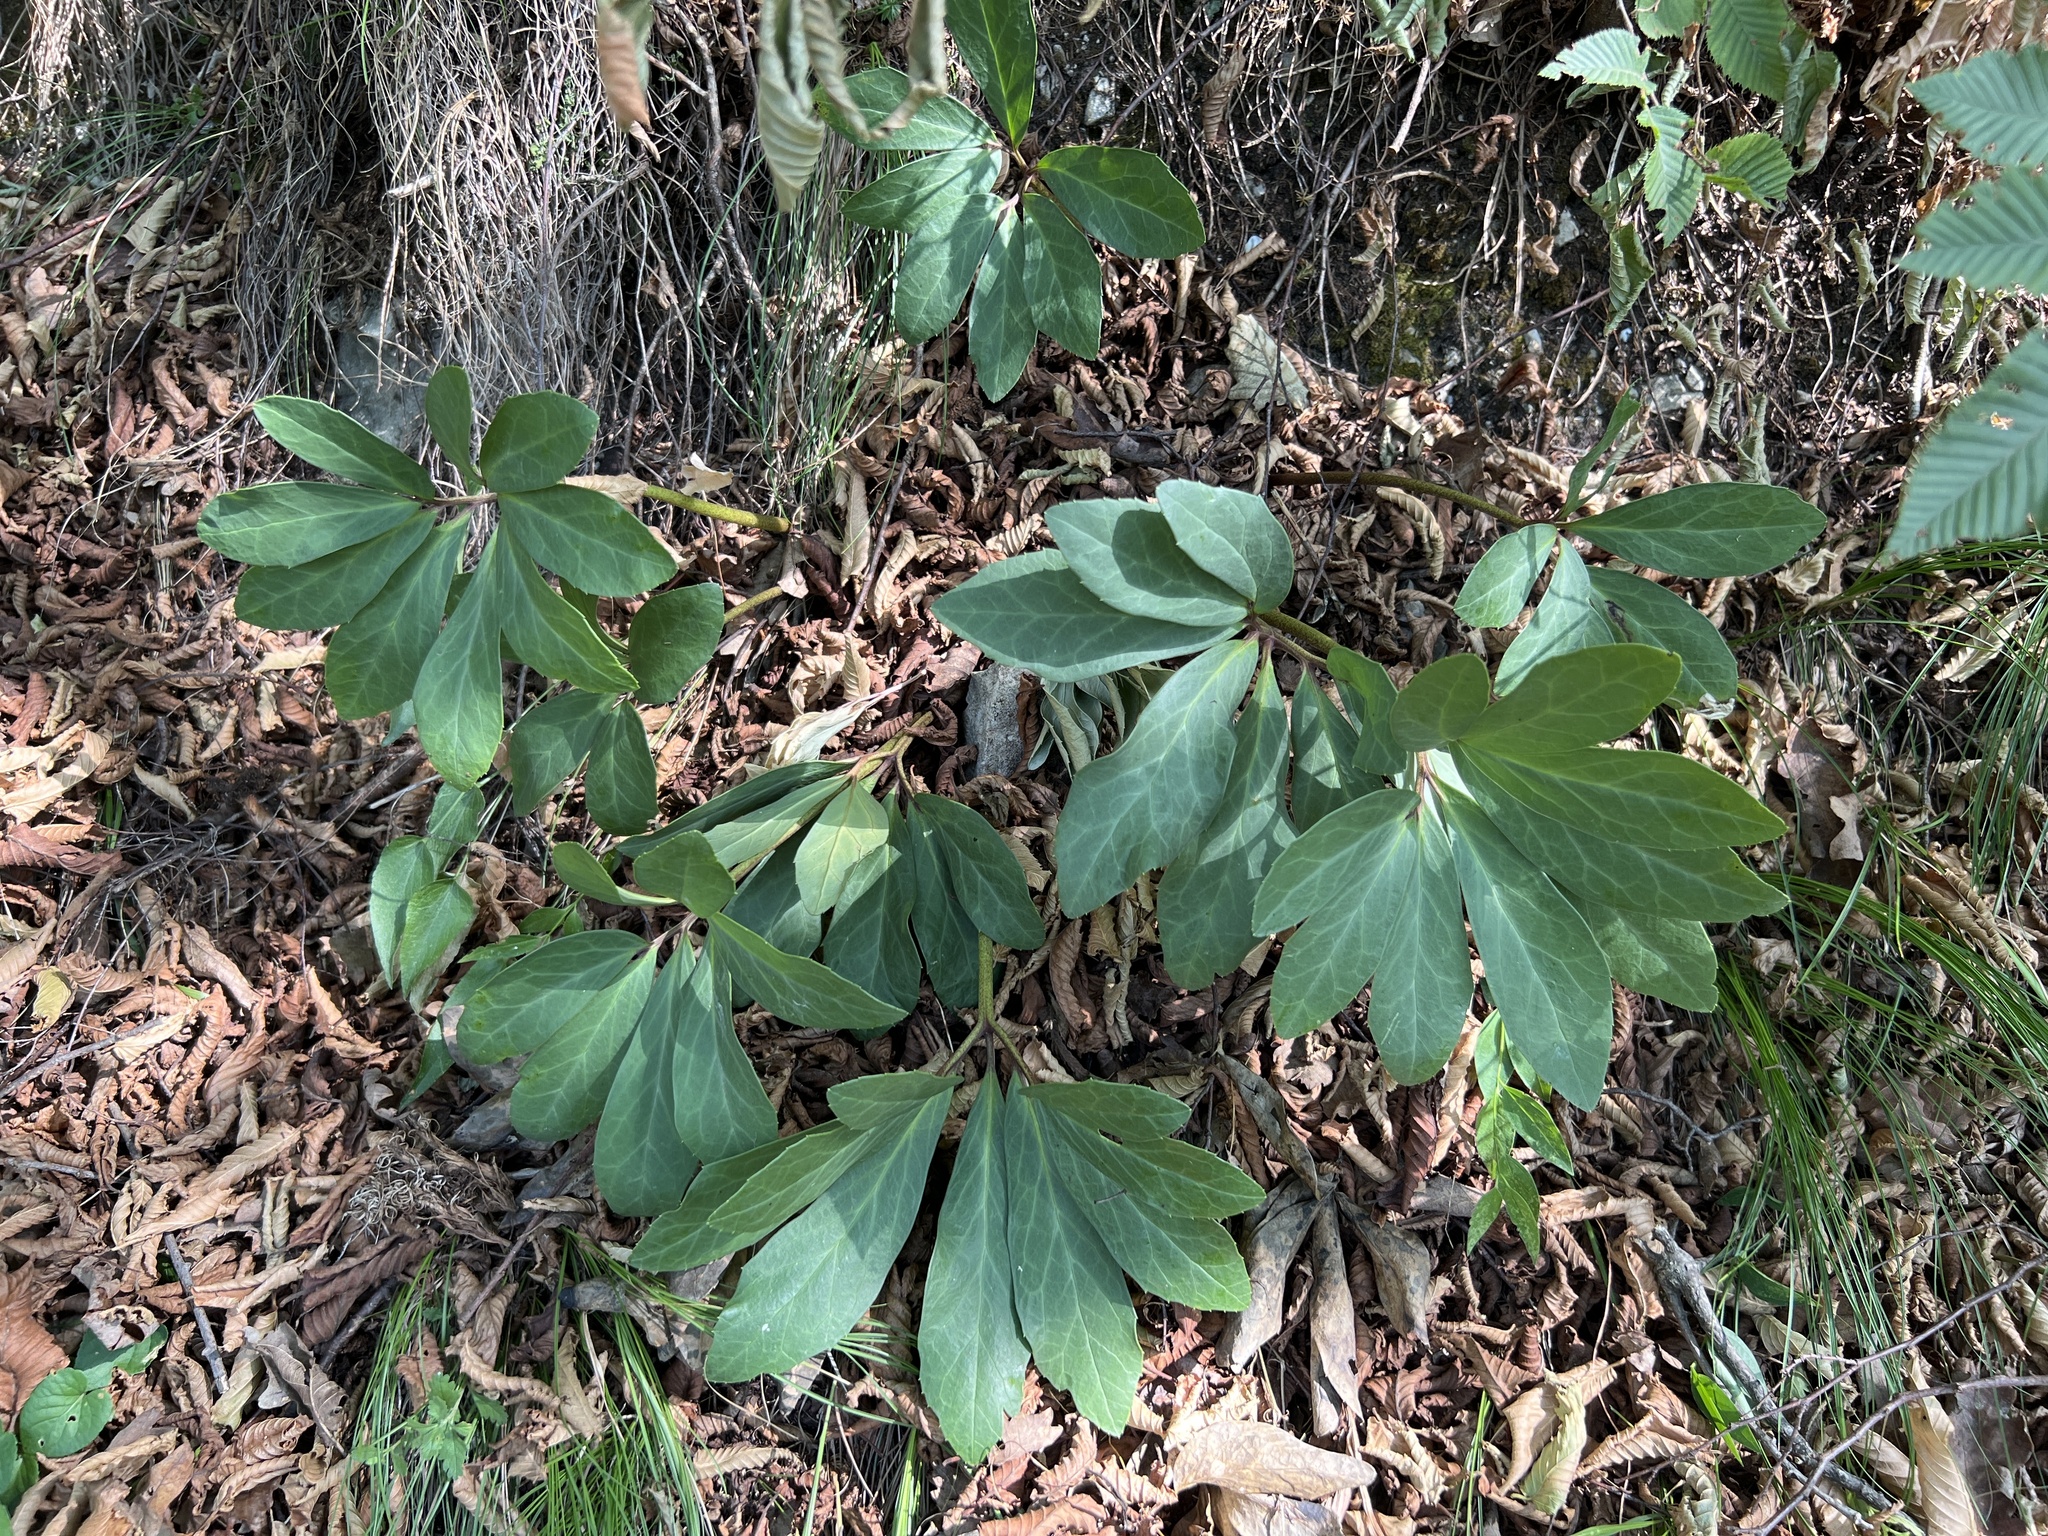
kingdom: Plantae
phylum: Tracheophyta
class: Magnoliopsida
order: Ranunculales
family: Ranunculaceae
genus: Helleborus
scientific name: Helleborus niger
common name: Black hellebore
